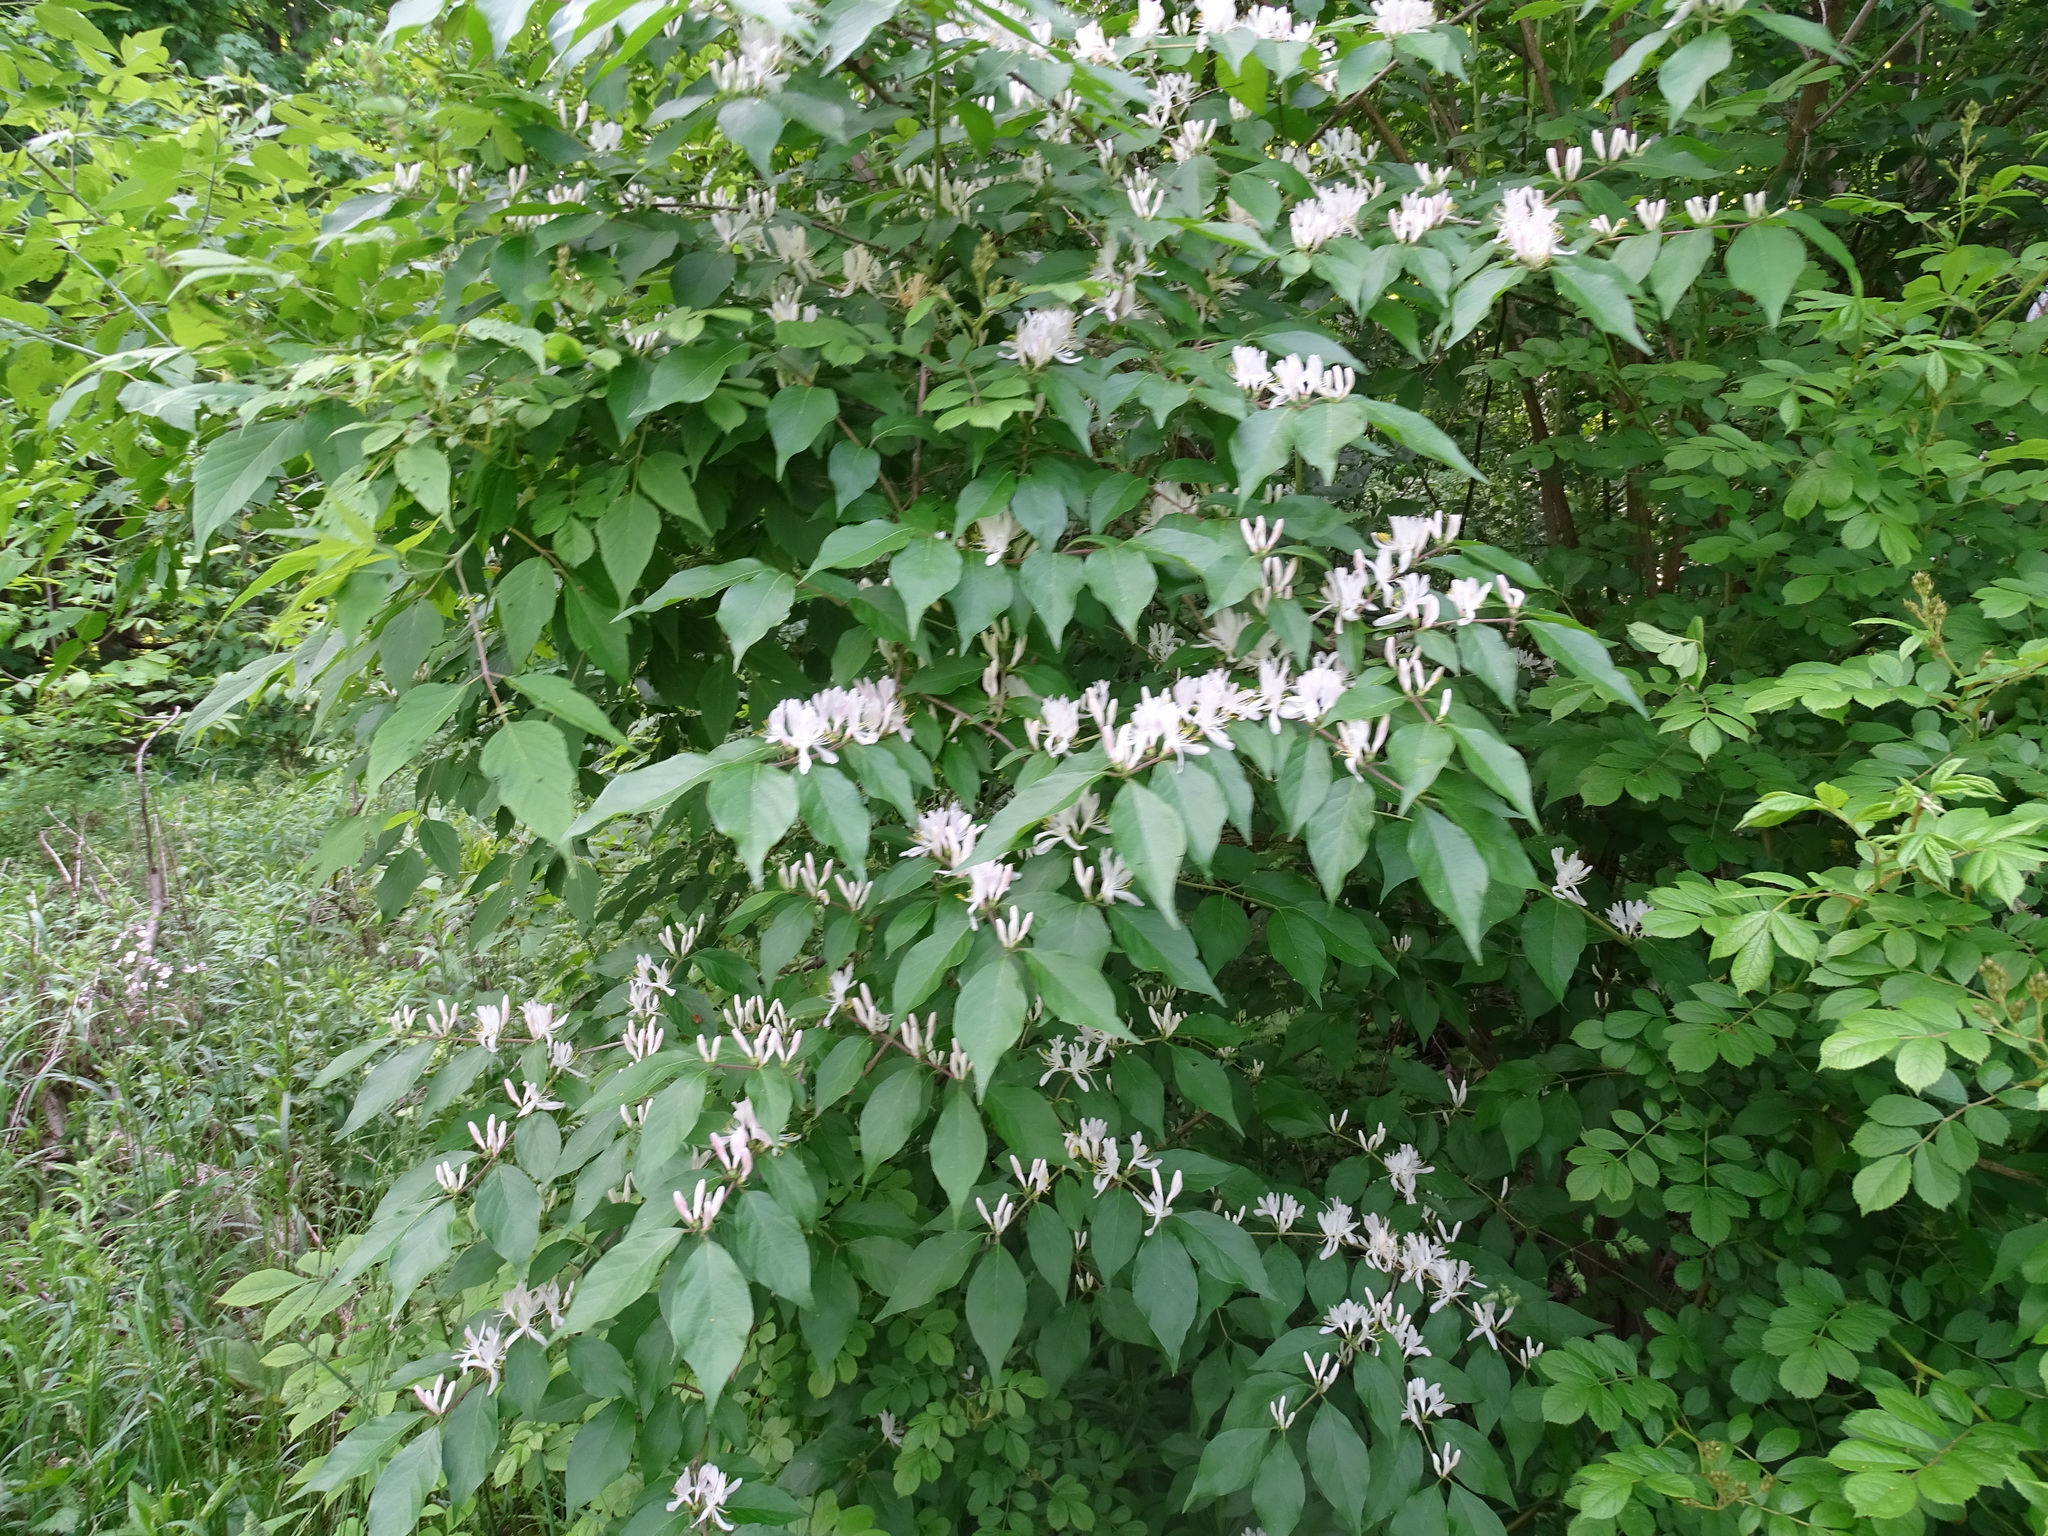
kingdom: Plantae
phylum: Tracheophyta
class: Magnoliopsida
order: Dipsacales
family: Caprifoliaceae
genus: Lonicera
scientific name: Lonicera maackii
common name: Amur honeysuckle
